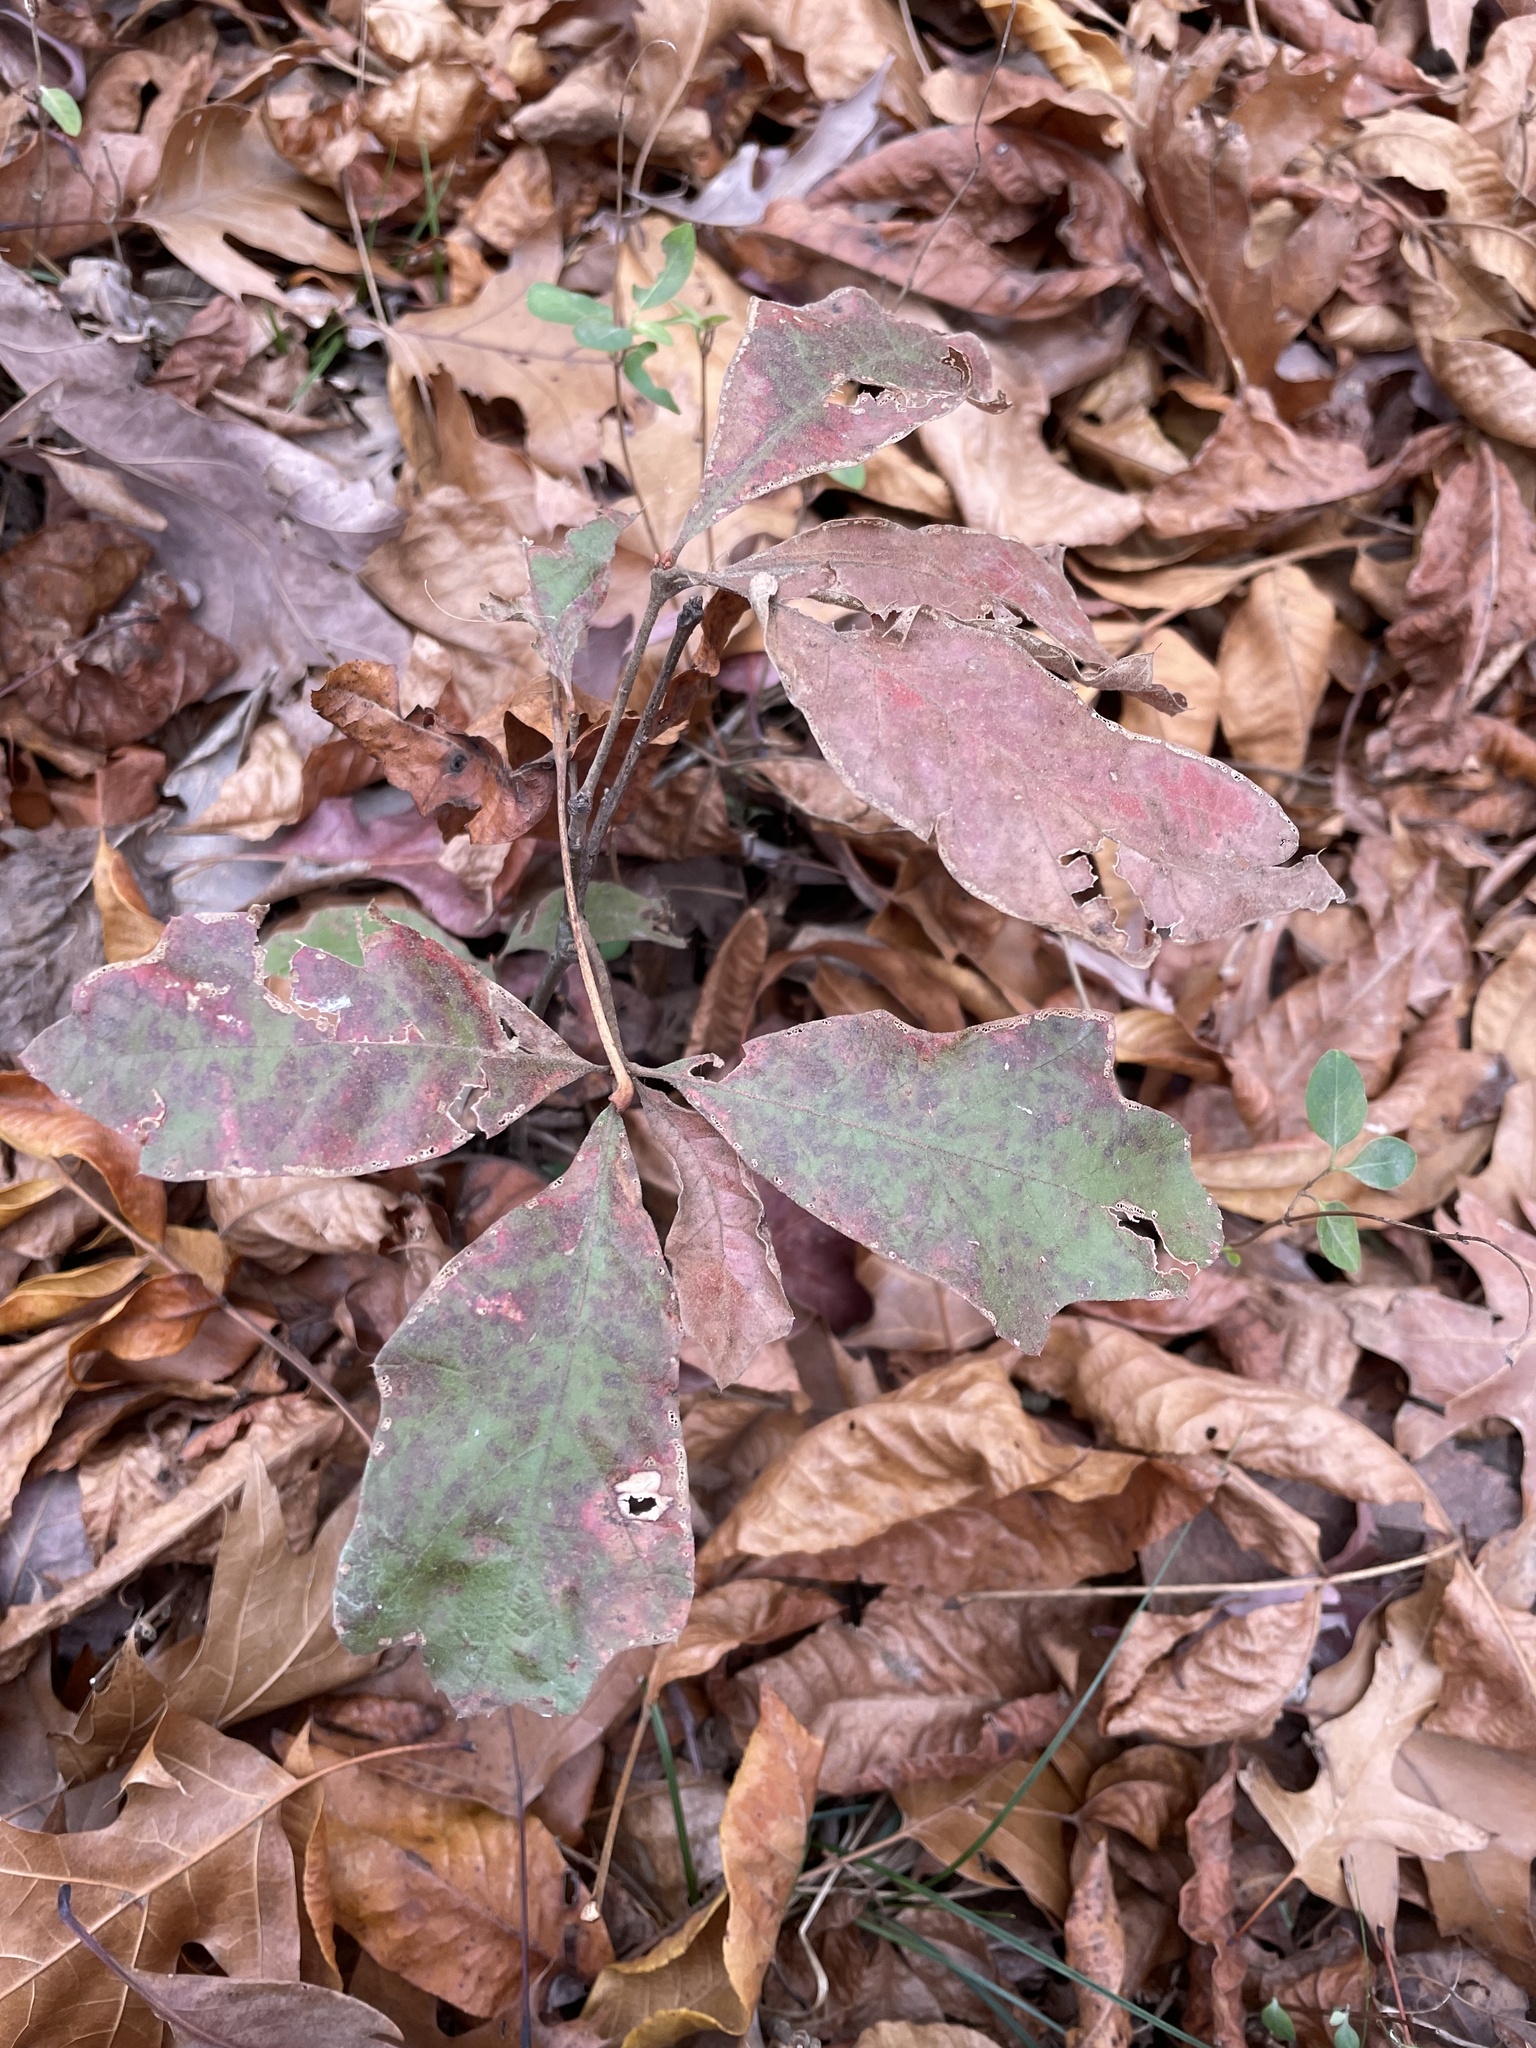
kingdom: Plantae
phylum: Tracheophyta
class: Magnoliopsida
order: Fagales
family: Fagaceae
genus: Quercus
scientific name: Quercus falcata
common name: Southern red oak
